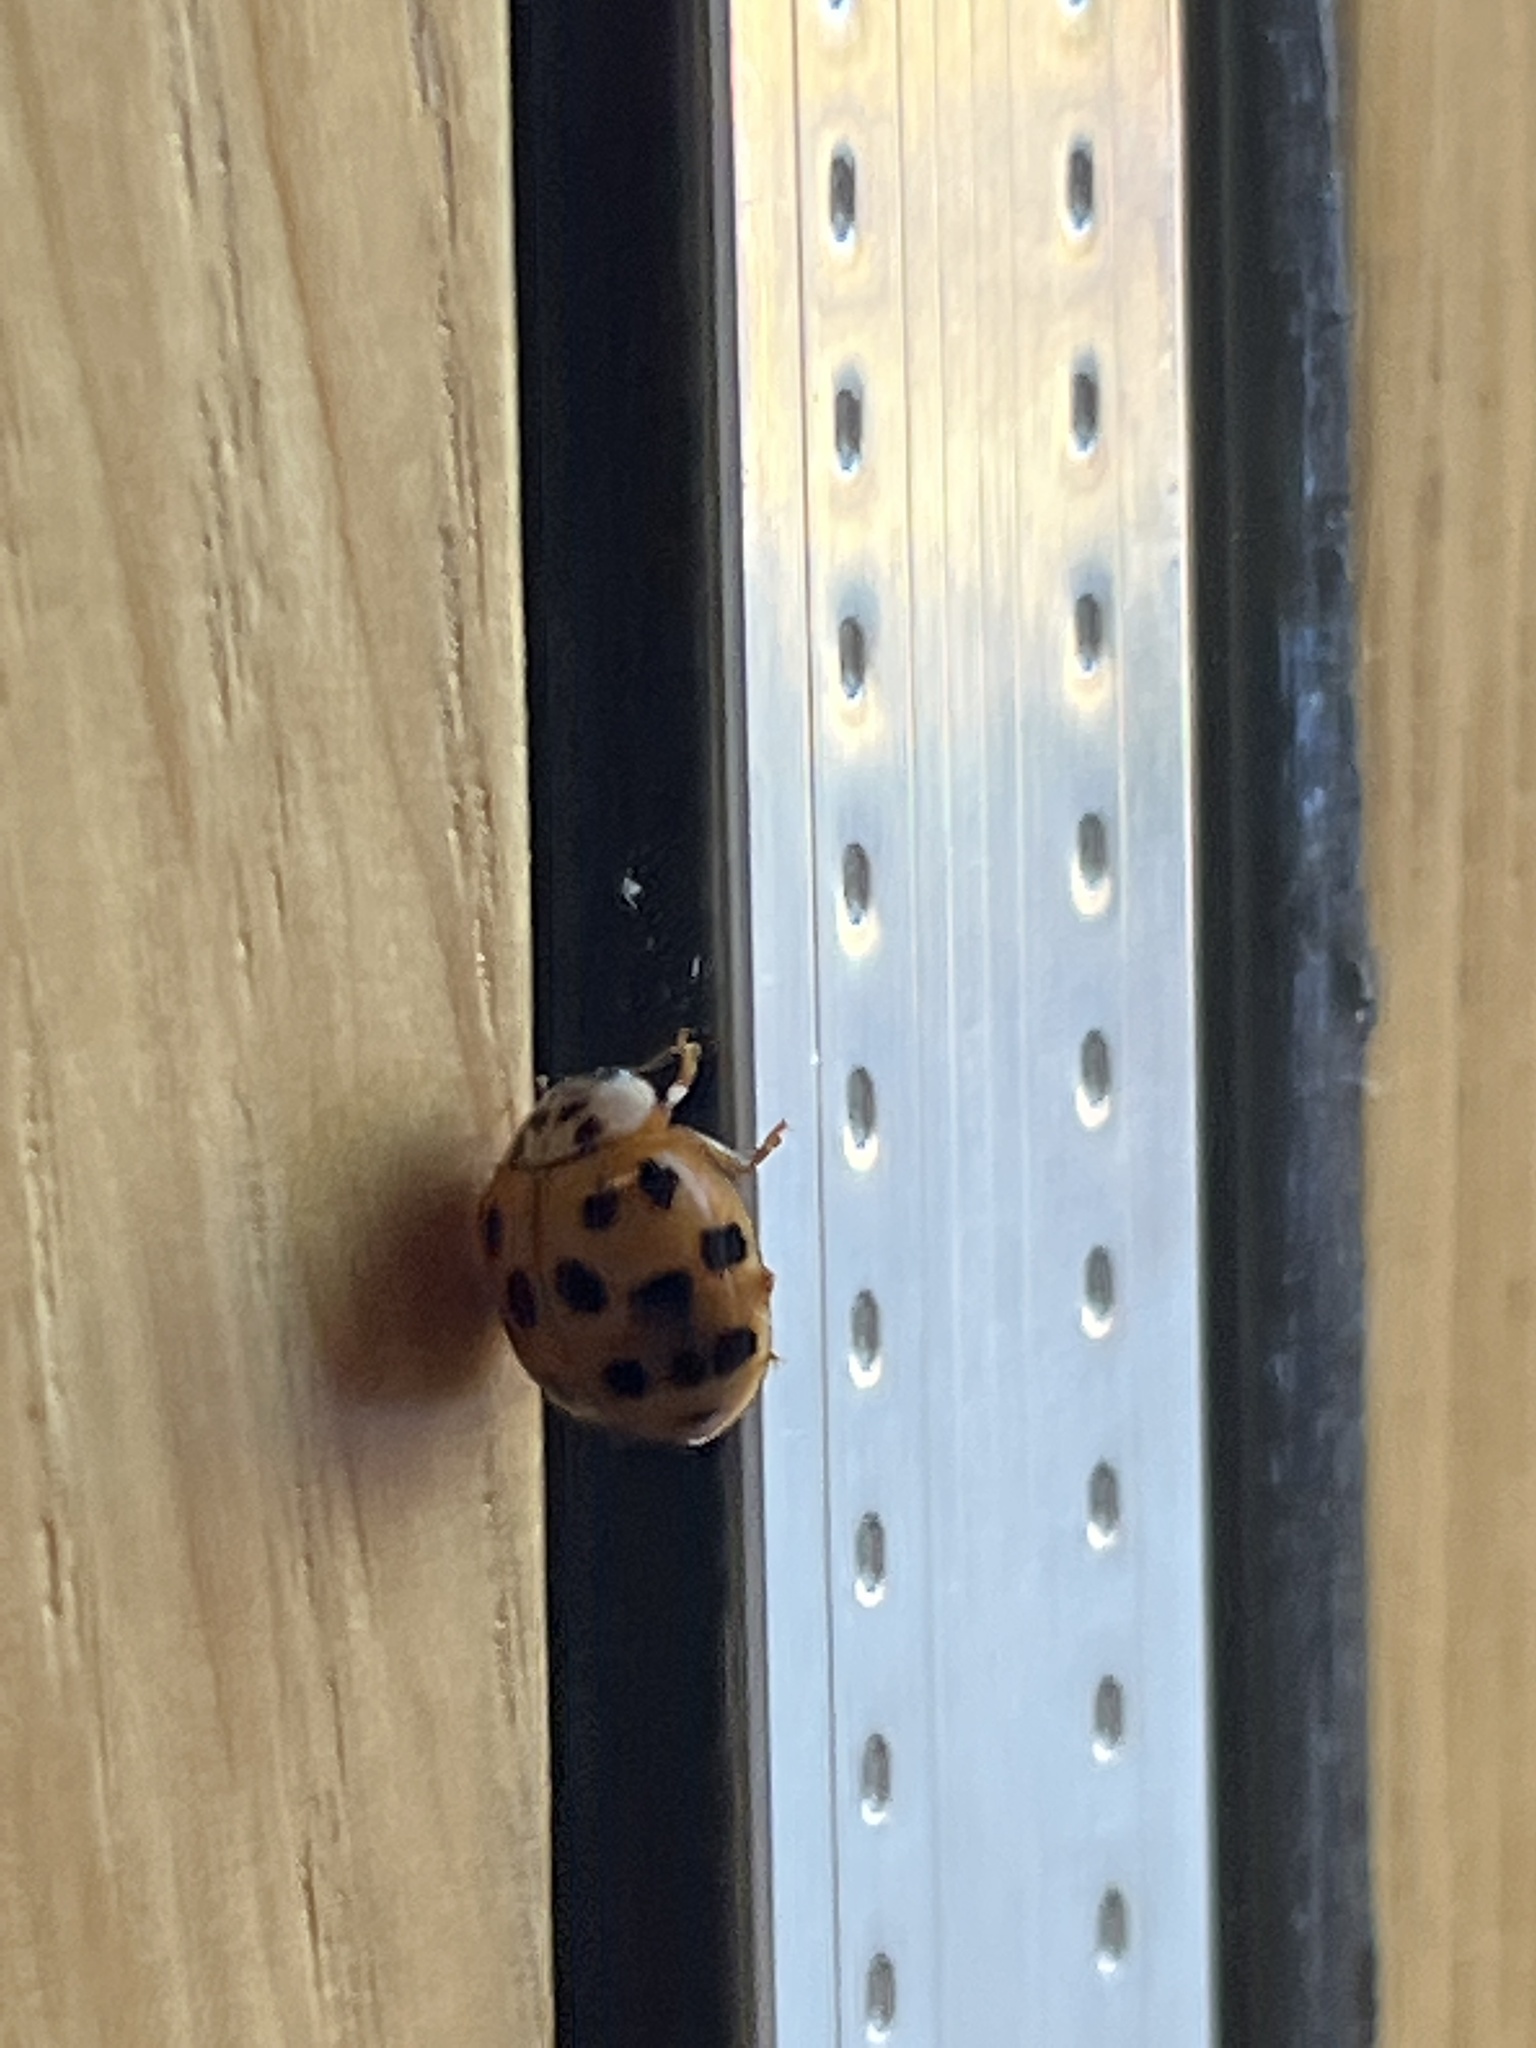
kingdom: Animalia
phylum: Arthropoda
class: Insecta
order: Coleoptera
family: Coccinellidae
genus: Harmonia
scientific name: Harmonia axyridis
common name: Harlequin ladybird
